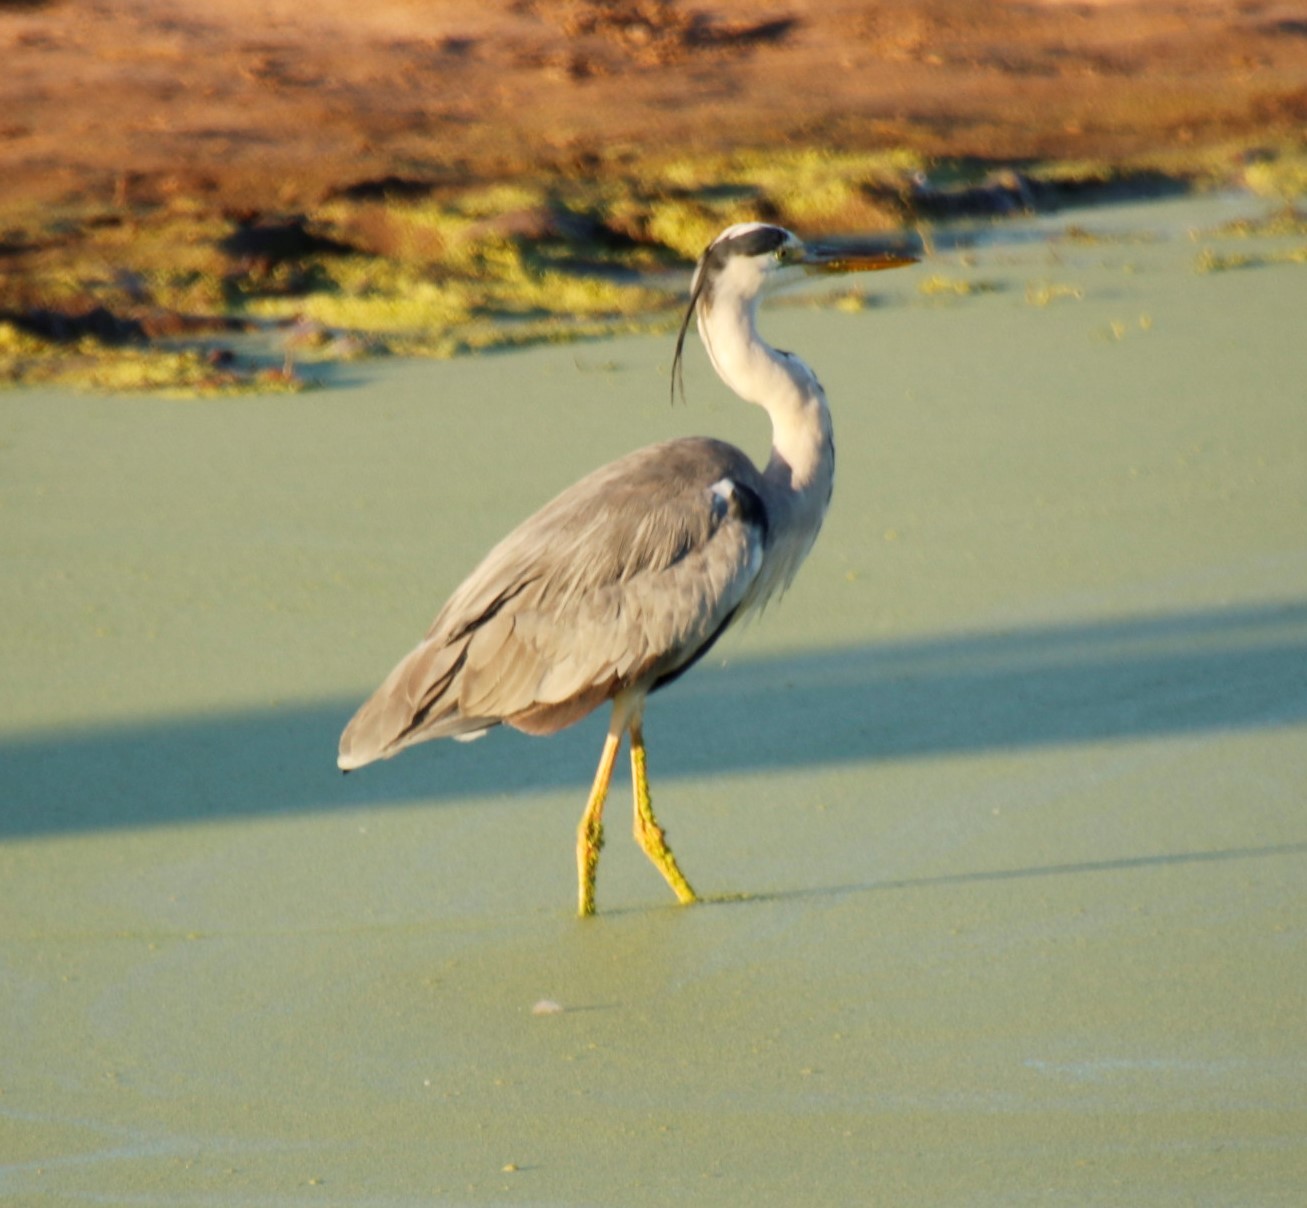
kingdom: Animalia
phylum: Chordata
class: Aves
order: Pelecaniformes
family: Ardeidae
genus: Ardea
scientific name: Ardea cinerea
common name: Grey heron
